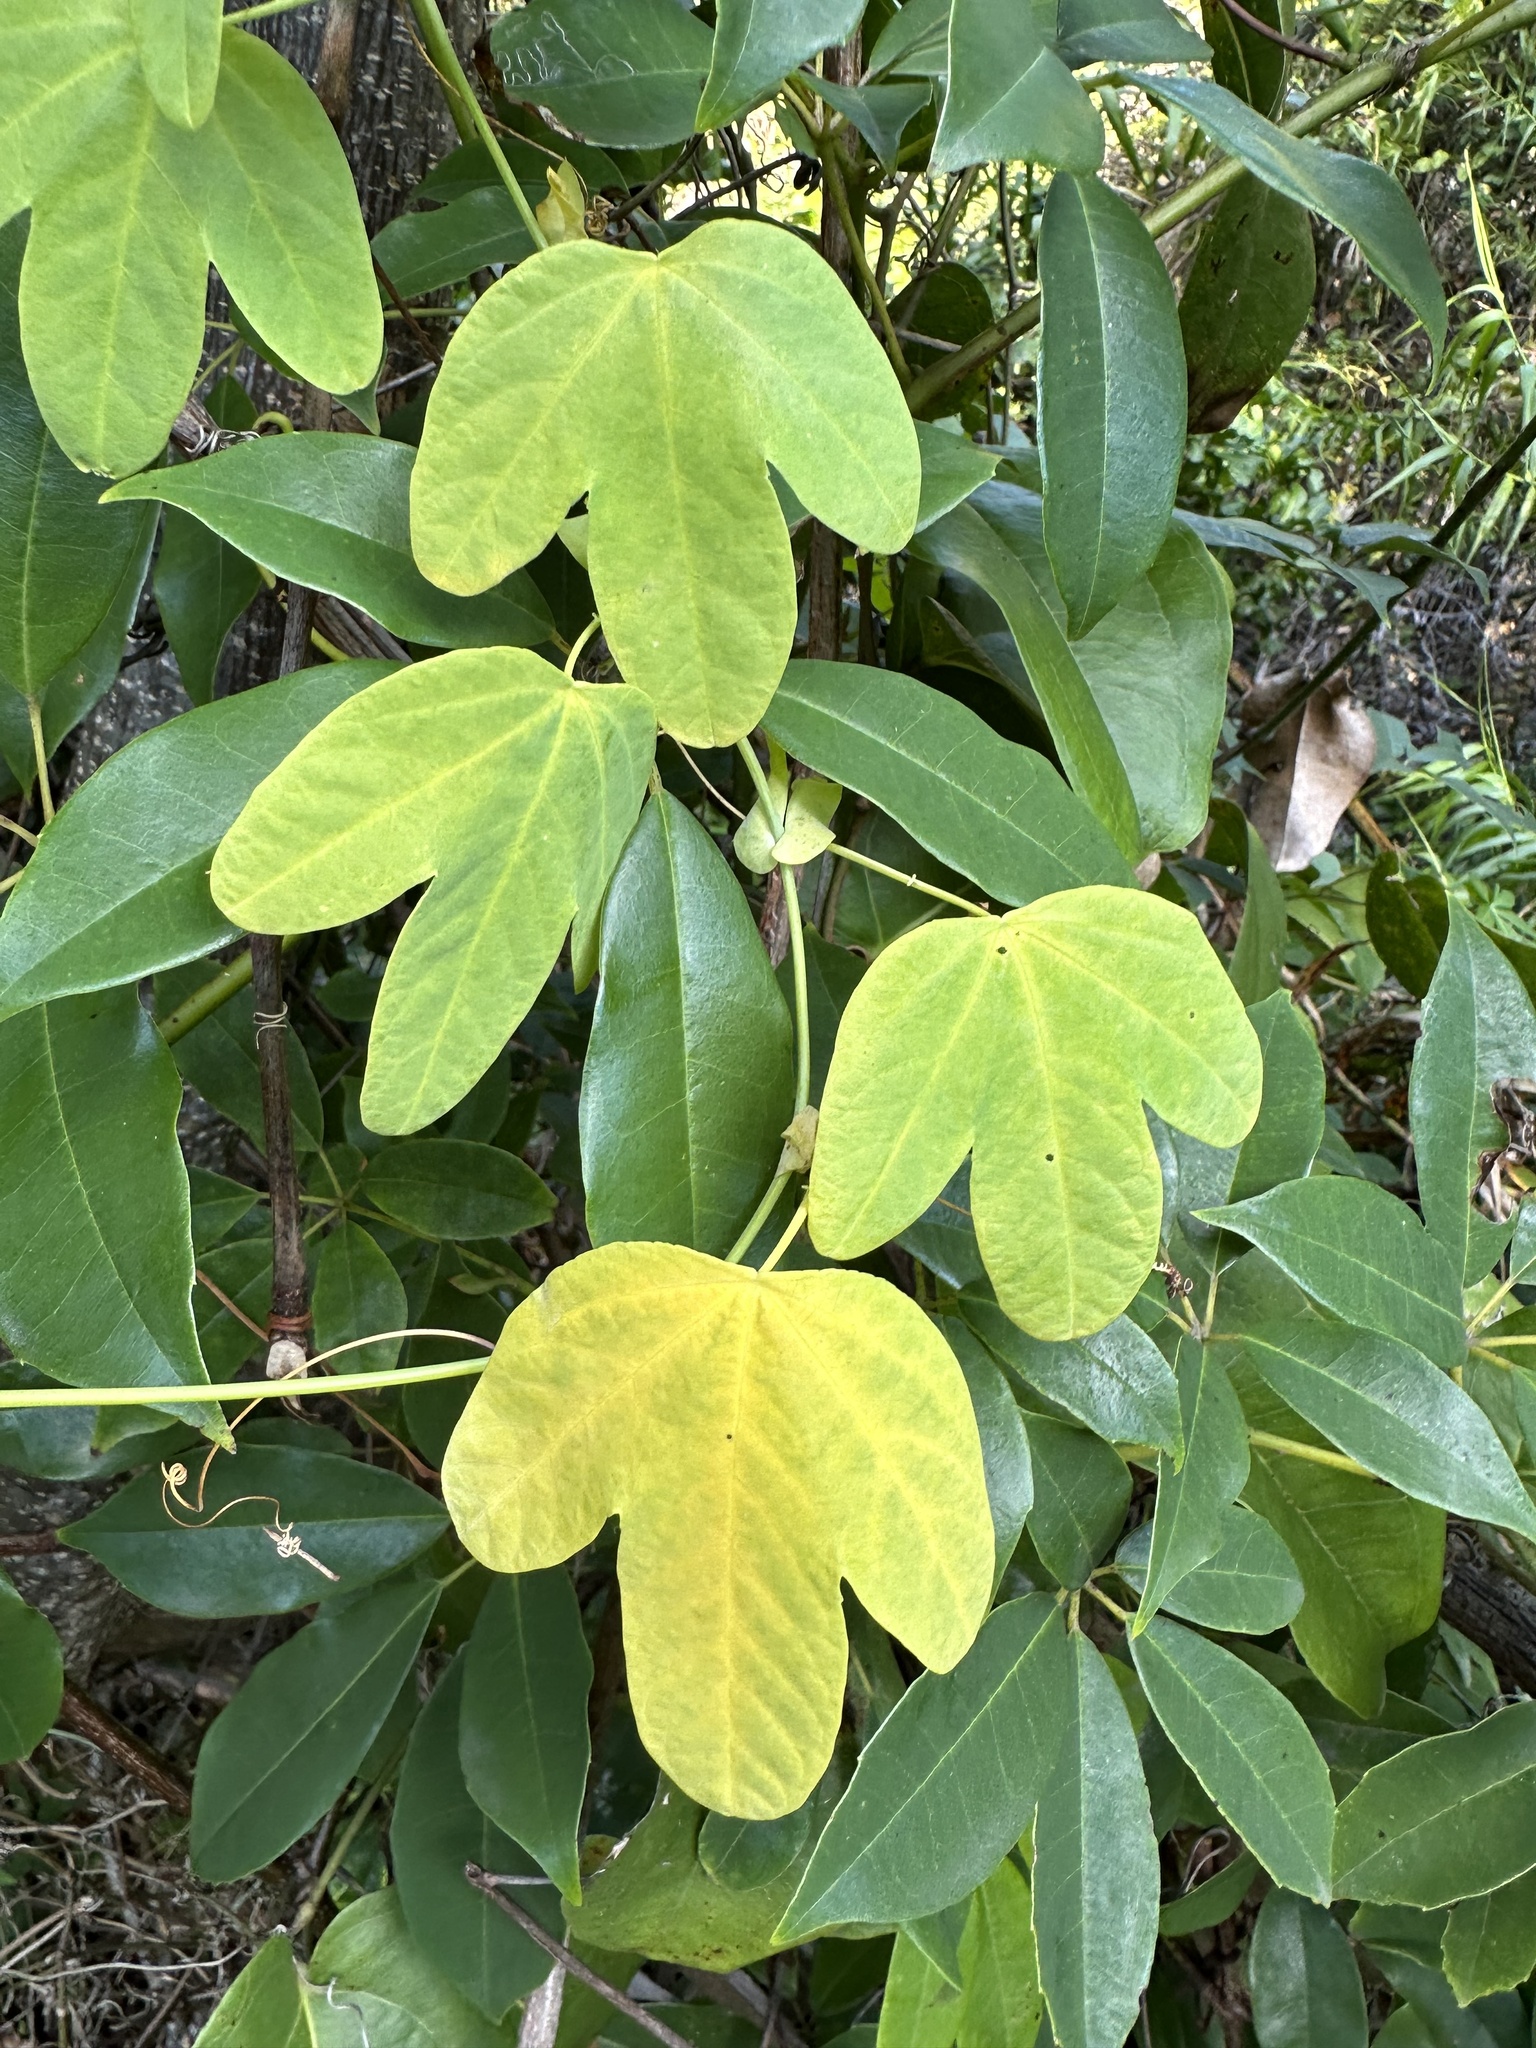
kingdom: Plantae
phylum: Tracheophyta
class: Magnoliopsida
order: Malpighiales
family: Passifloraceae
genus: Passiflora
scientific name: Passiflora subpeltata
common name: White passionflower
